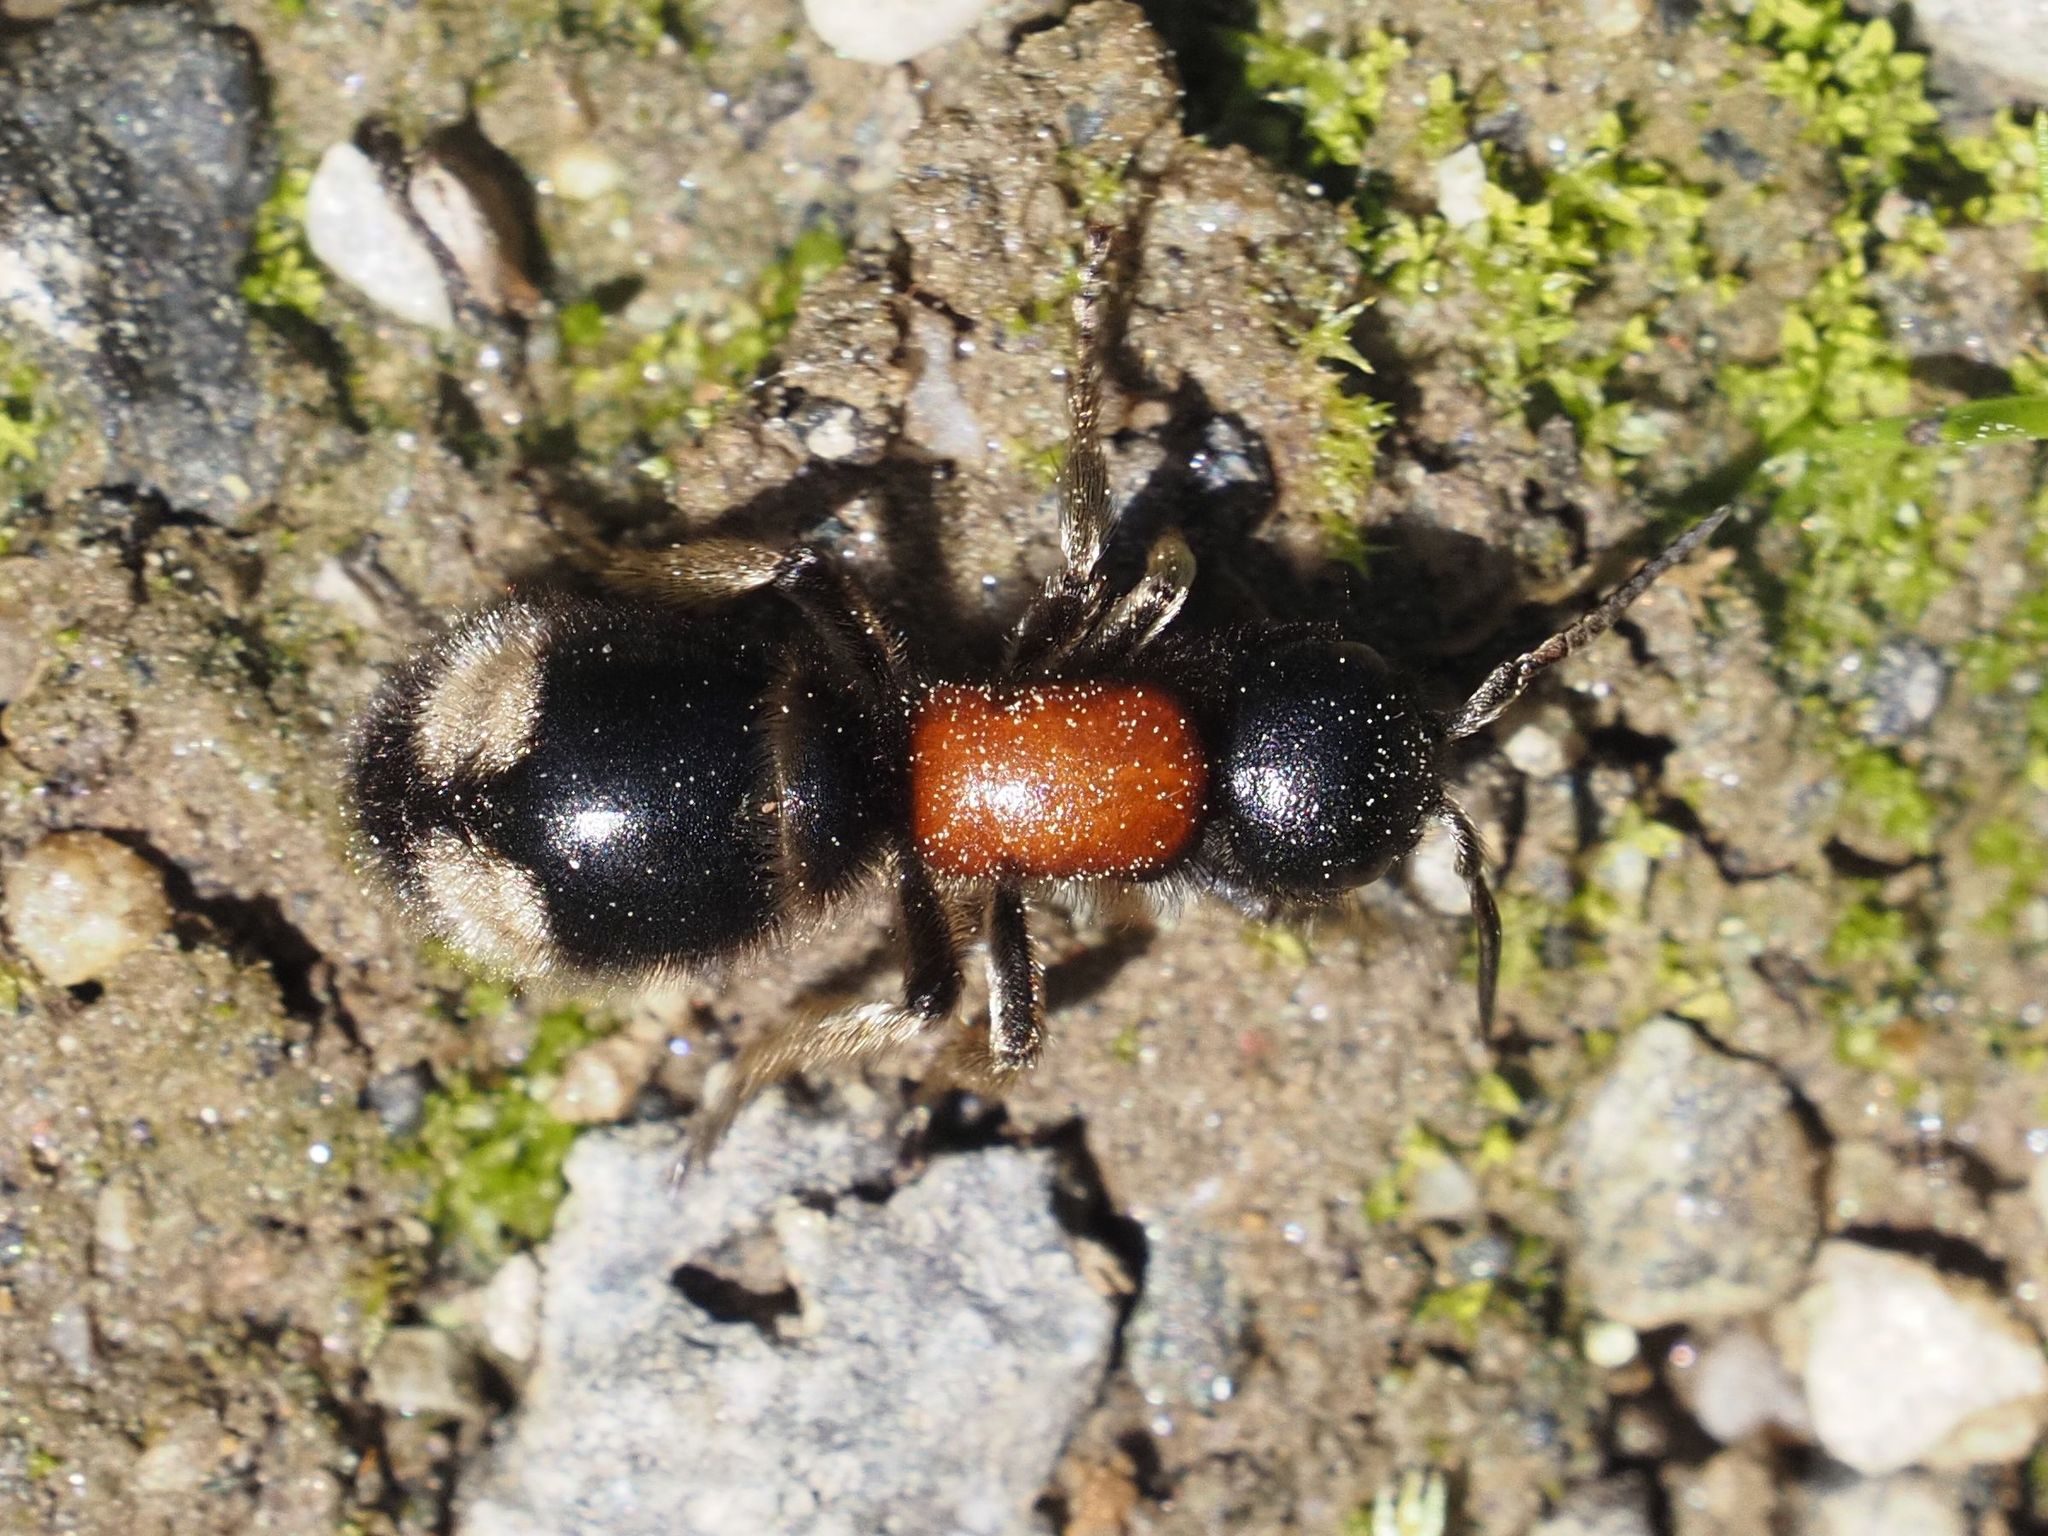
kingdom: Animalia
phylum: Arthropoda
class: Insecta
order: Hymenoptera
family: Mutillidae
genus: Mutilla
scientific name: Mutilla marginata
